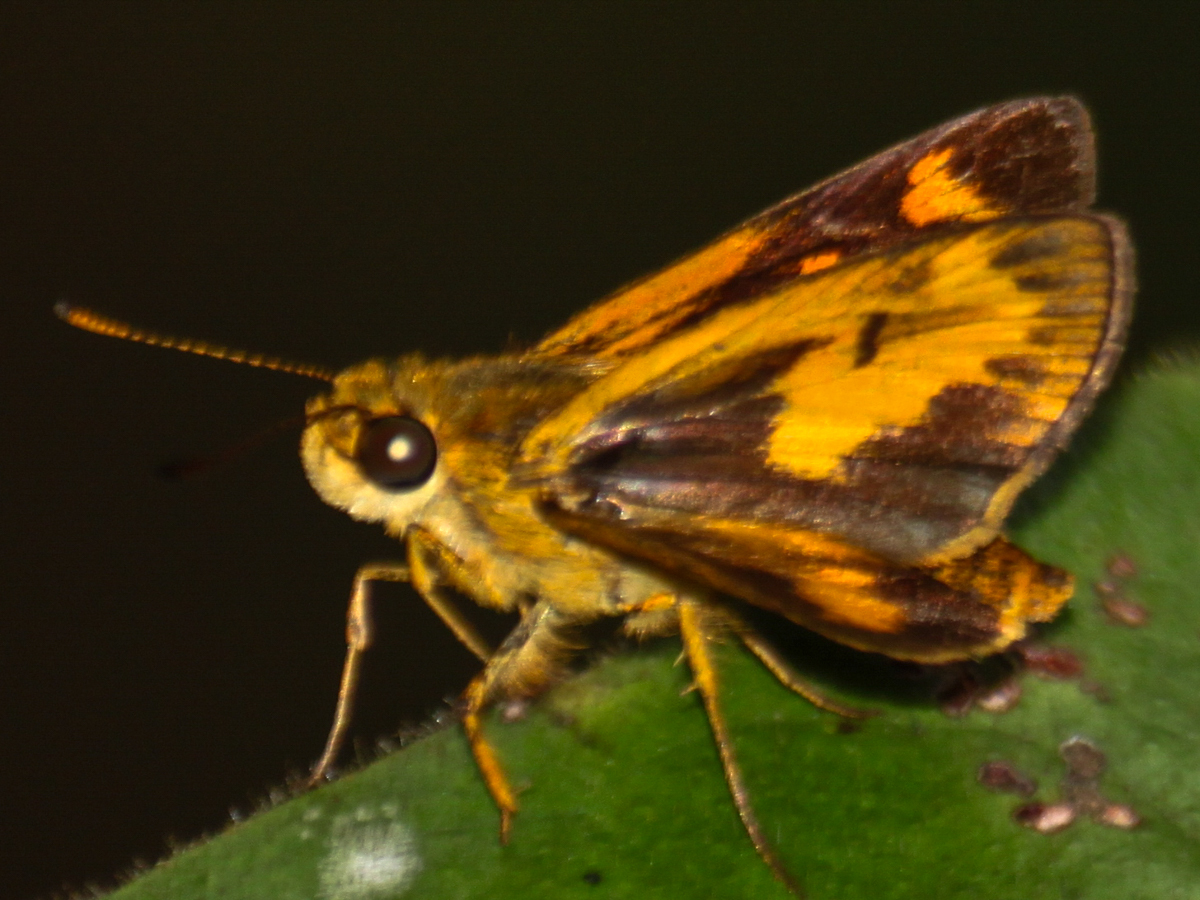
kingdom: Animalia
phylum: Arthropoda
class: Insecta
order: Lepidoptera
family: Hesperiidae
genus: Oriens
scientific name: Oriens gola
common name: Common dartlet
